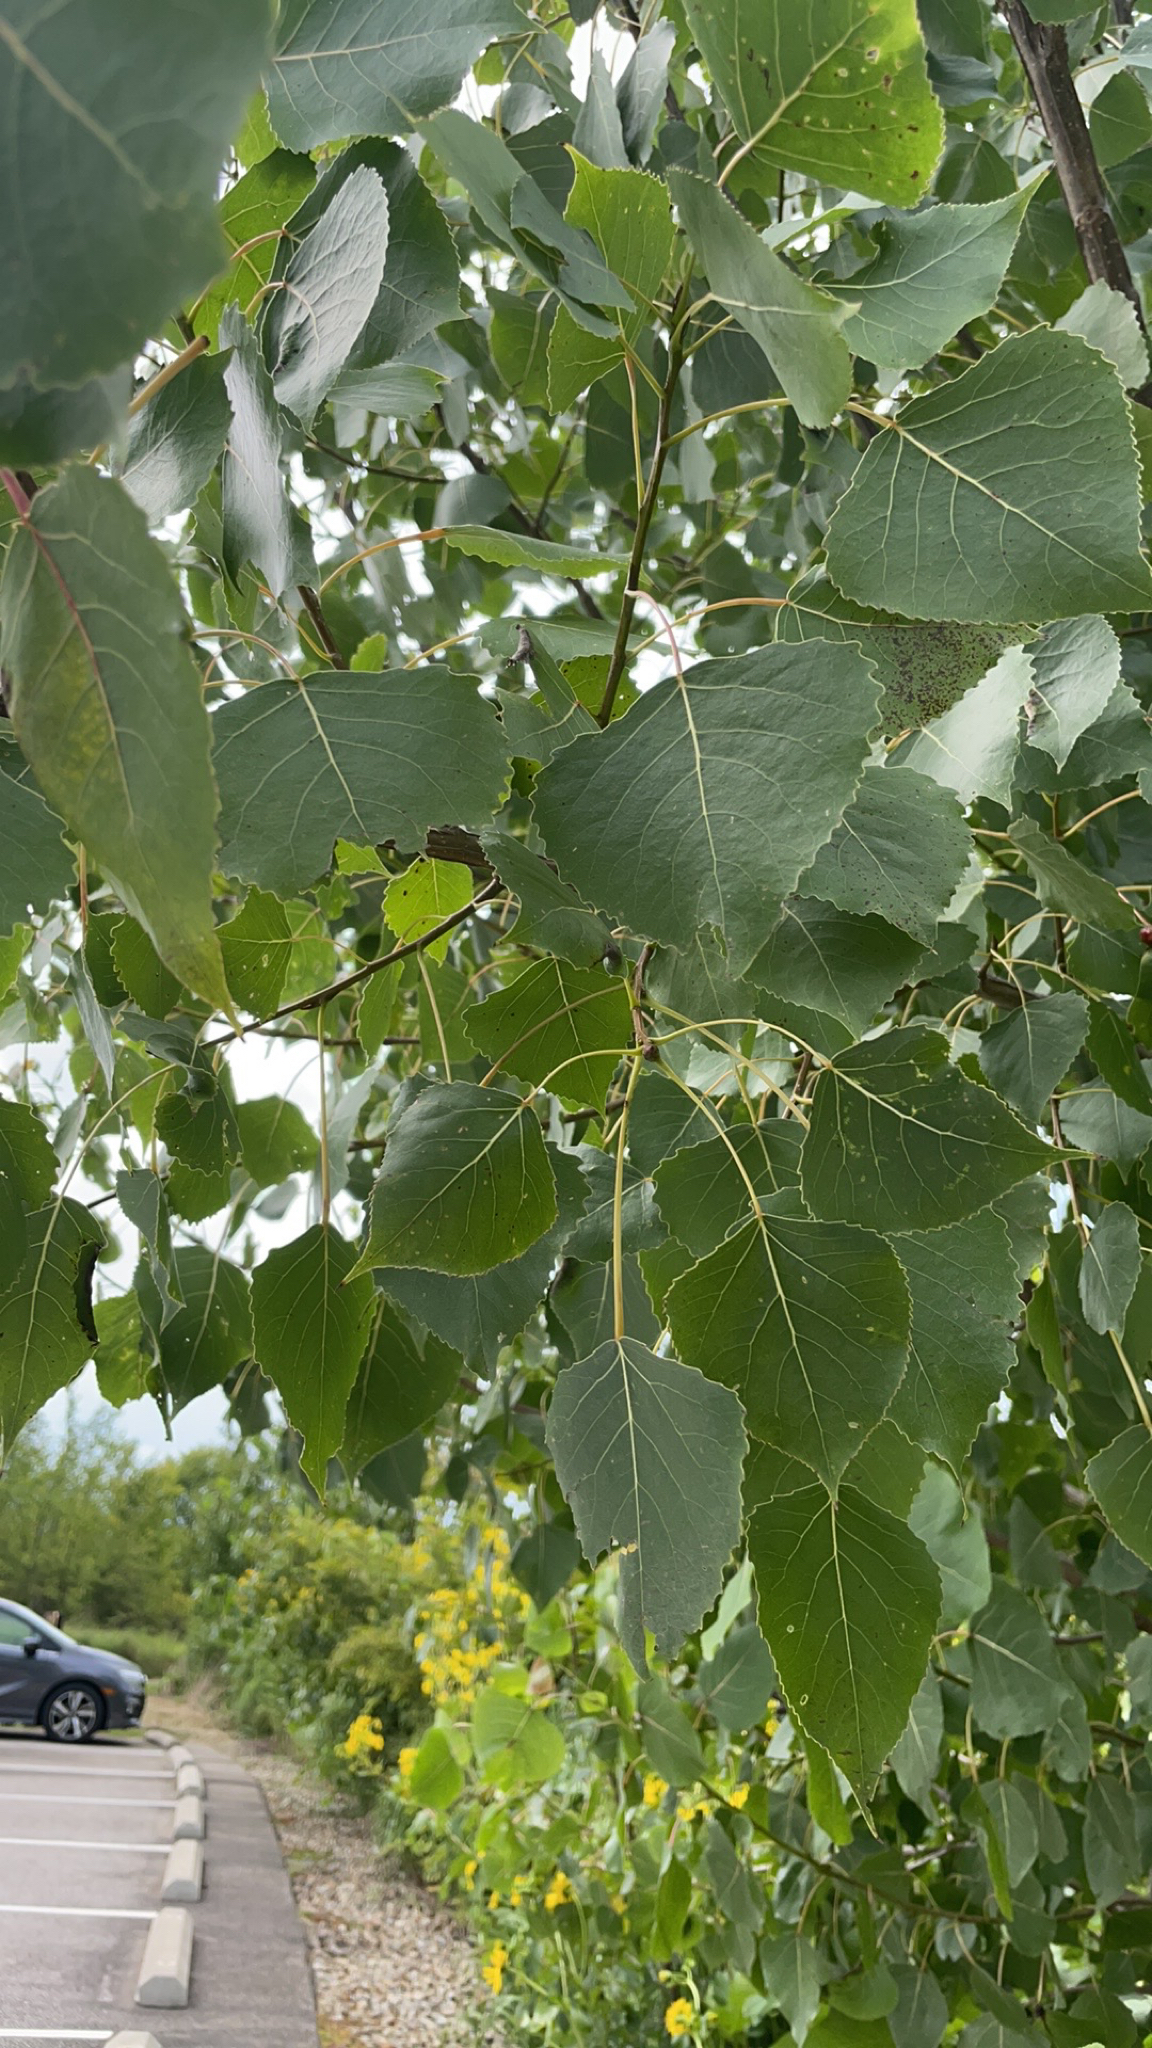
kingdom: Plantae
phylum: Tracheophyta
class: Magnoliopsida
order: Malpighiales
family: Salicaceae
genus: Populus
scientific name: Populus deltoides
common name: Eastern cottonwood
